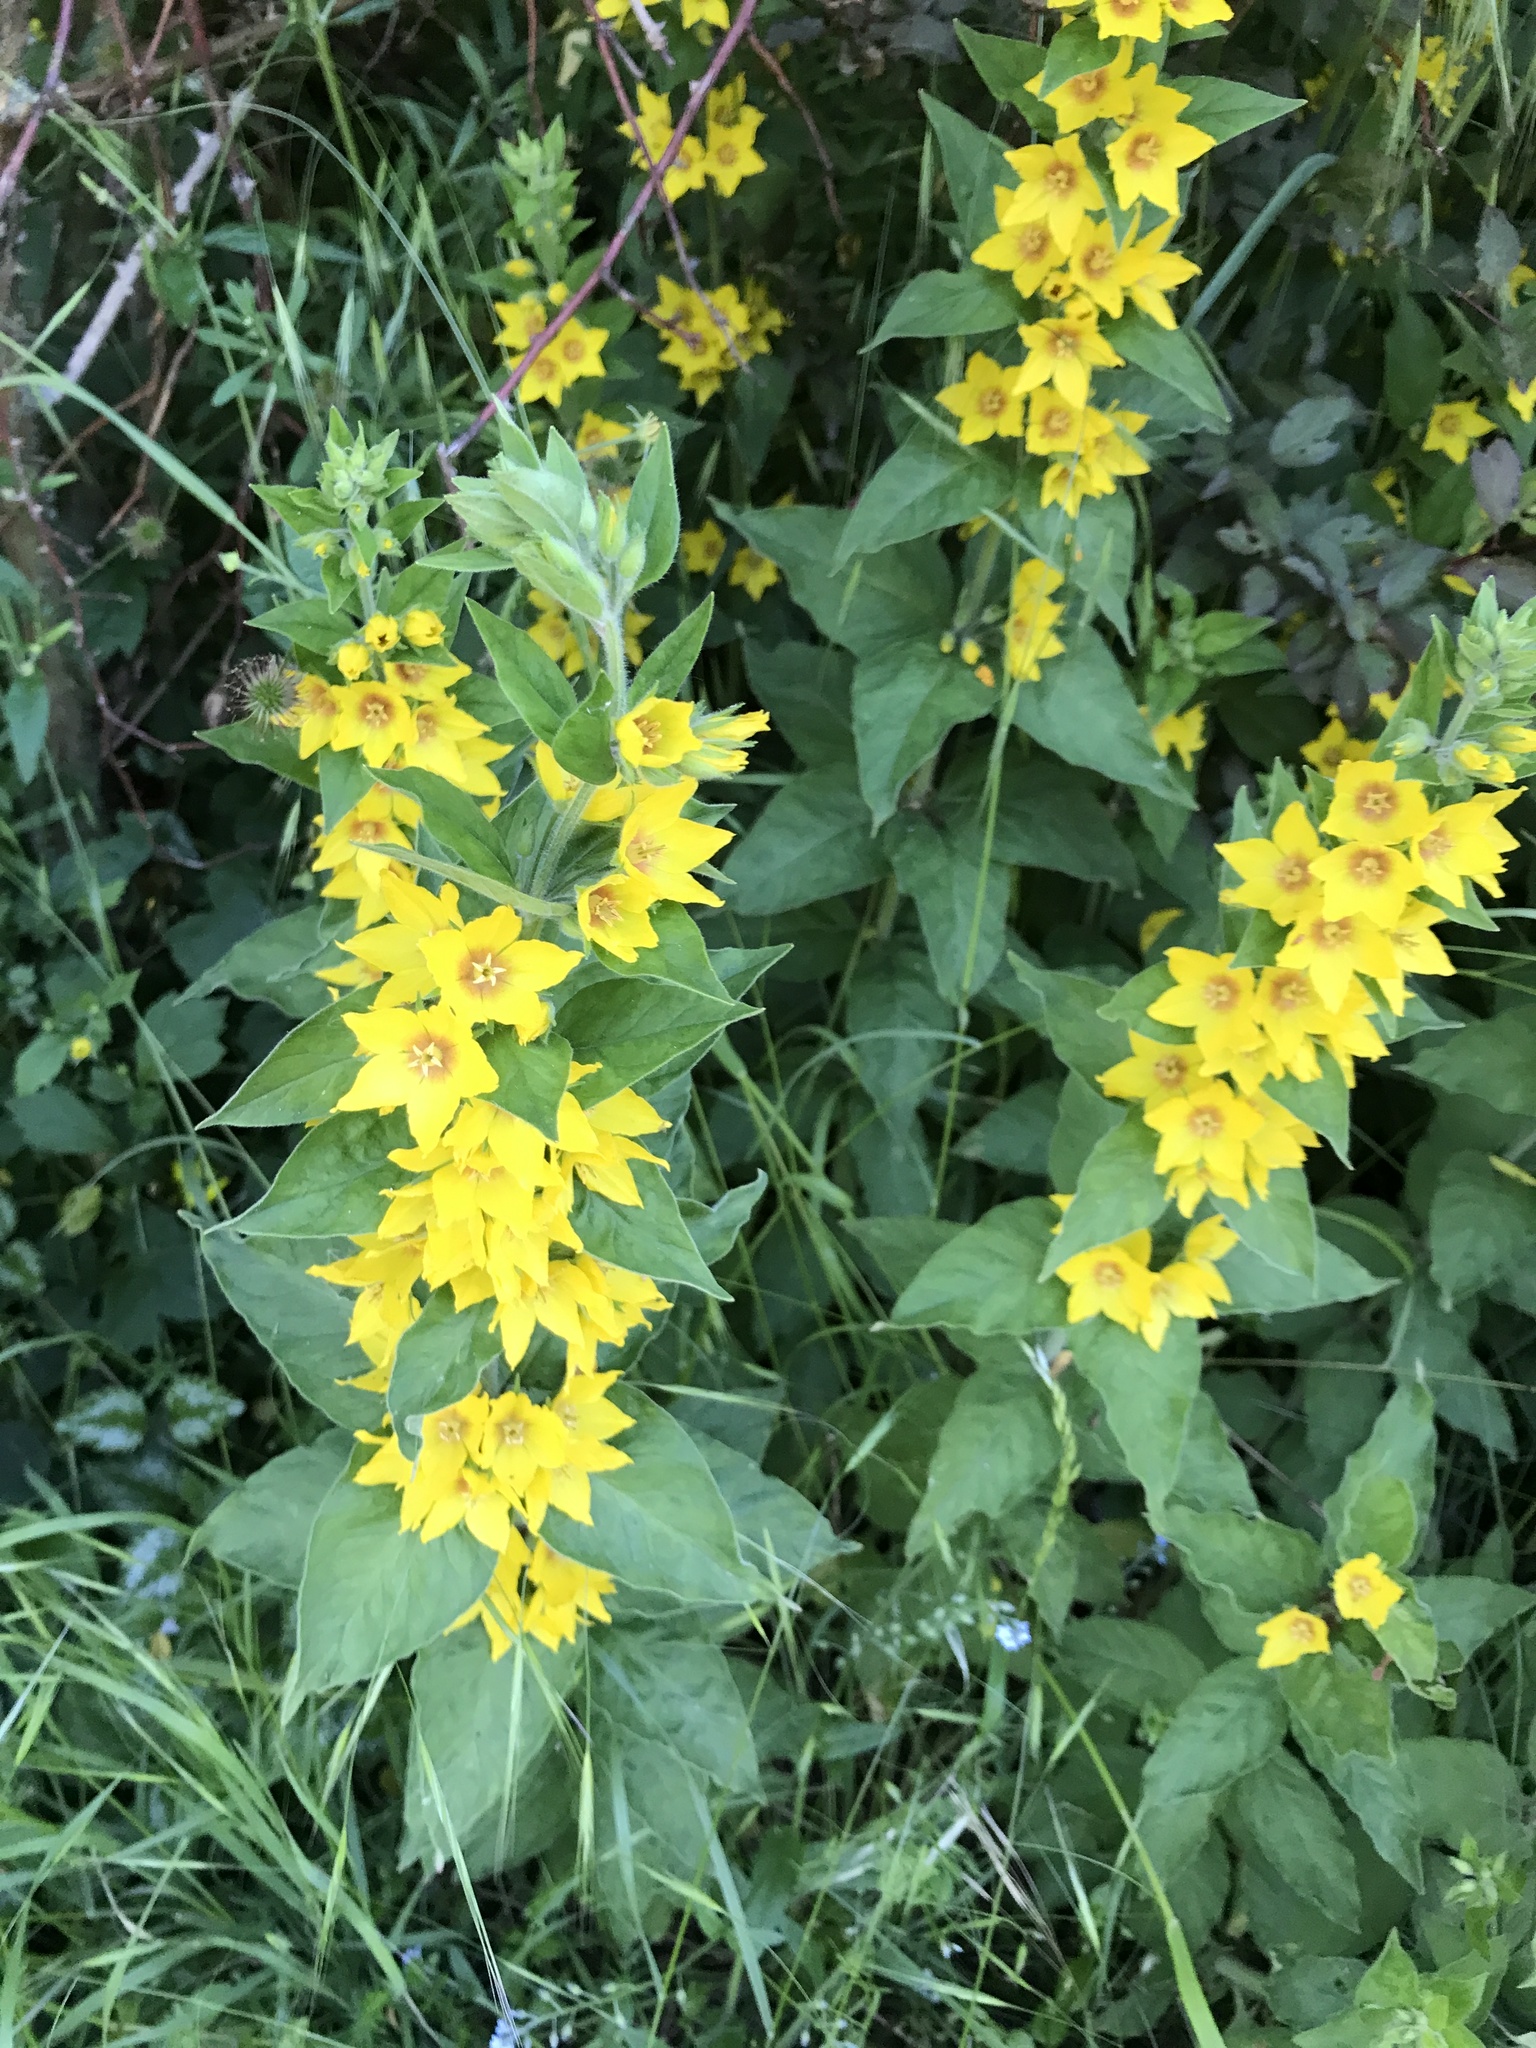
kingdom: Plantae
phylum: Tracheophyta
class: Magnoliopsida
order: Ericales
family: Primulaceae
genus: Lysimachia
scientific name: Lysimachia punctata
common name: Dotted loosestrife
